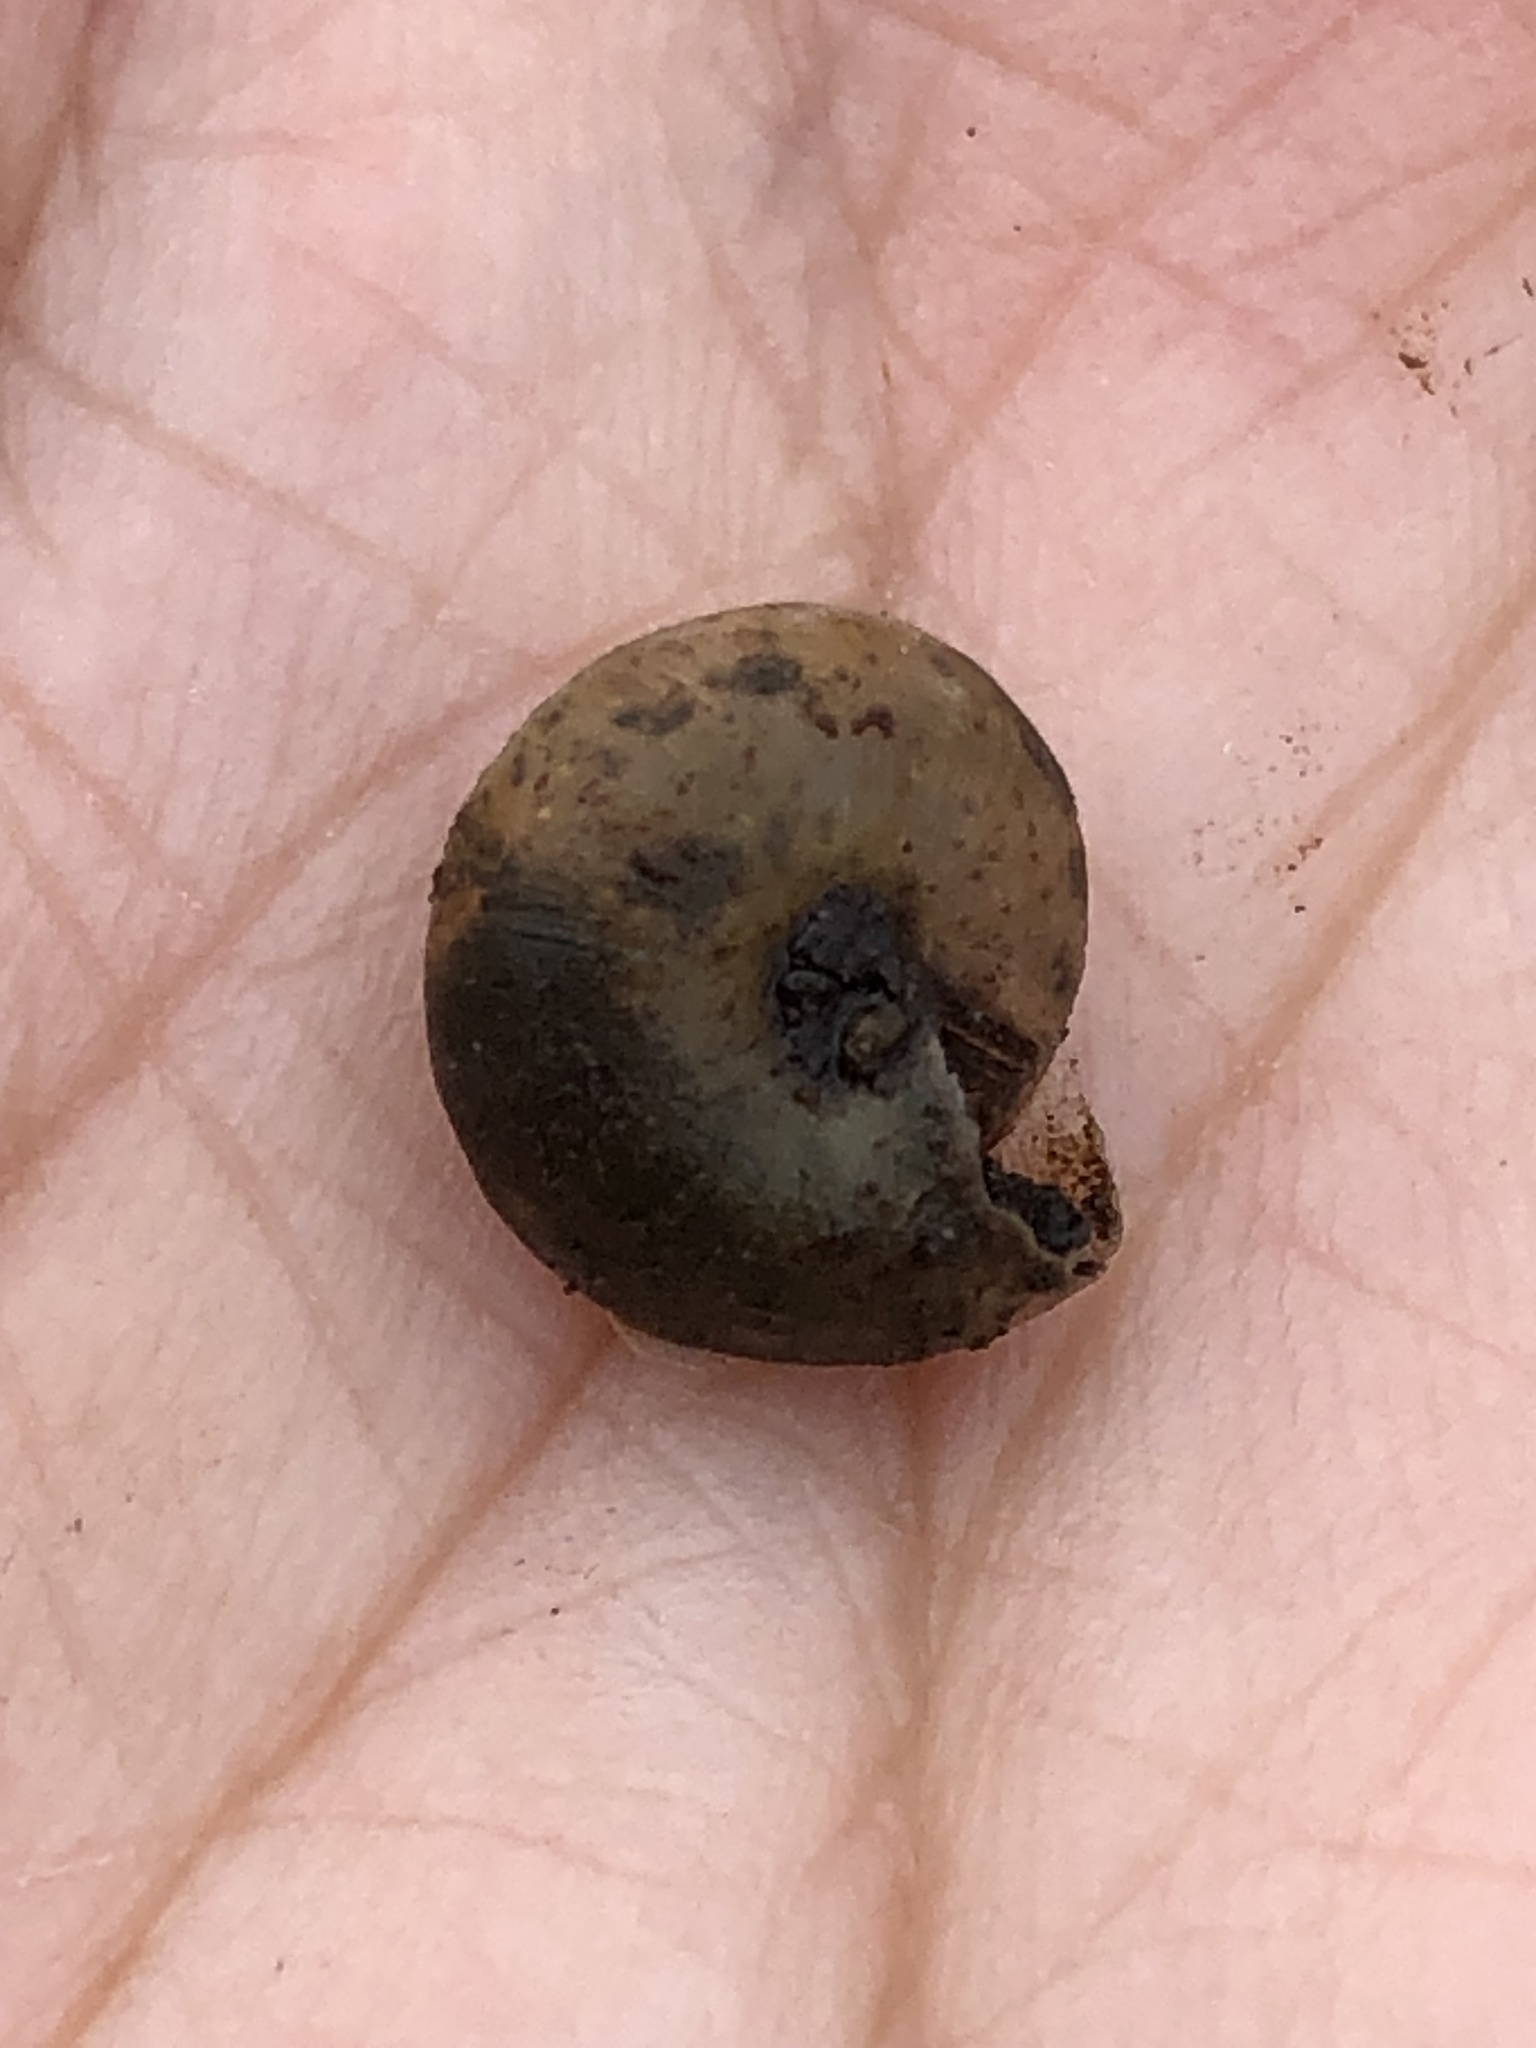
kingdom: Animalia
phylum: Mollusca
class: Gastropoda
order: Stylommatophora
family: Hygromiidae
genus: Trochulus
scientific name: Trochulus hispidus
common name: Hairy snail
